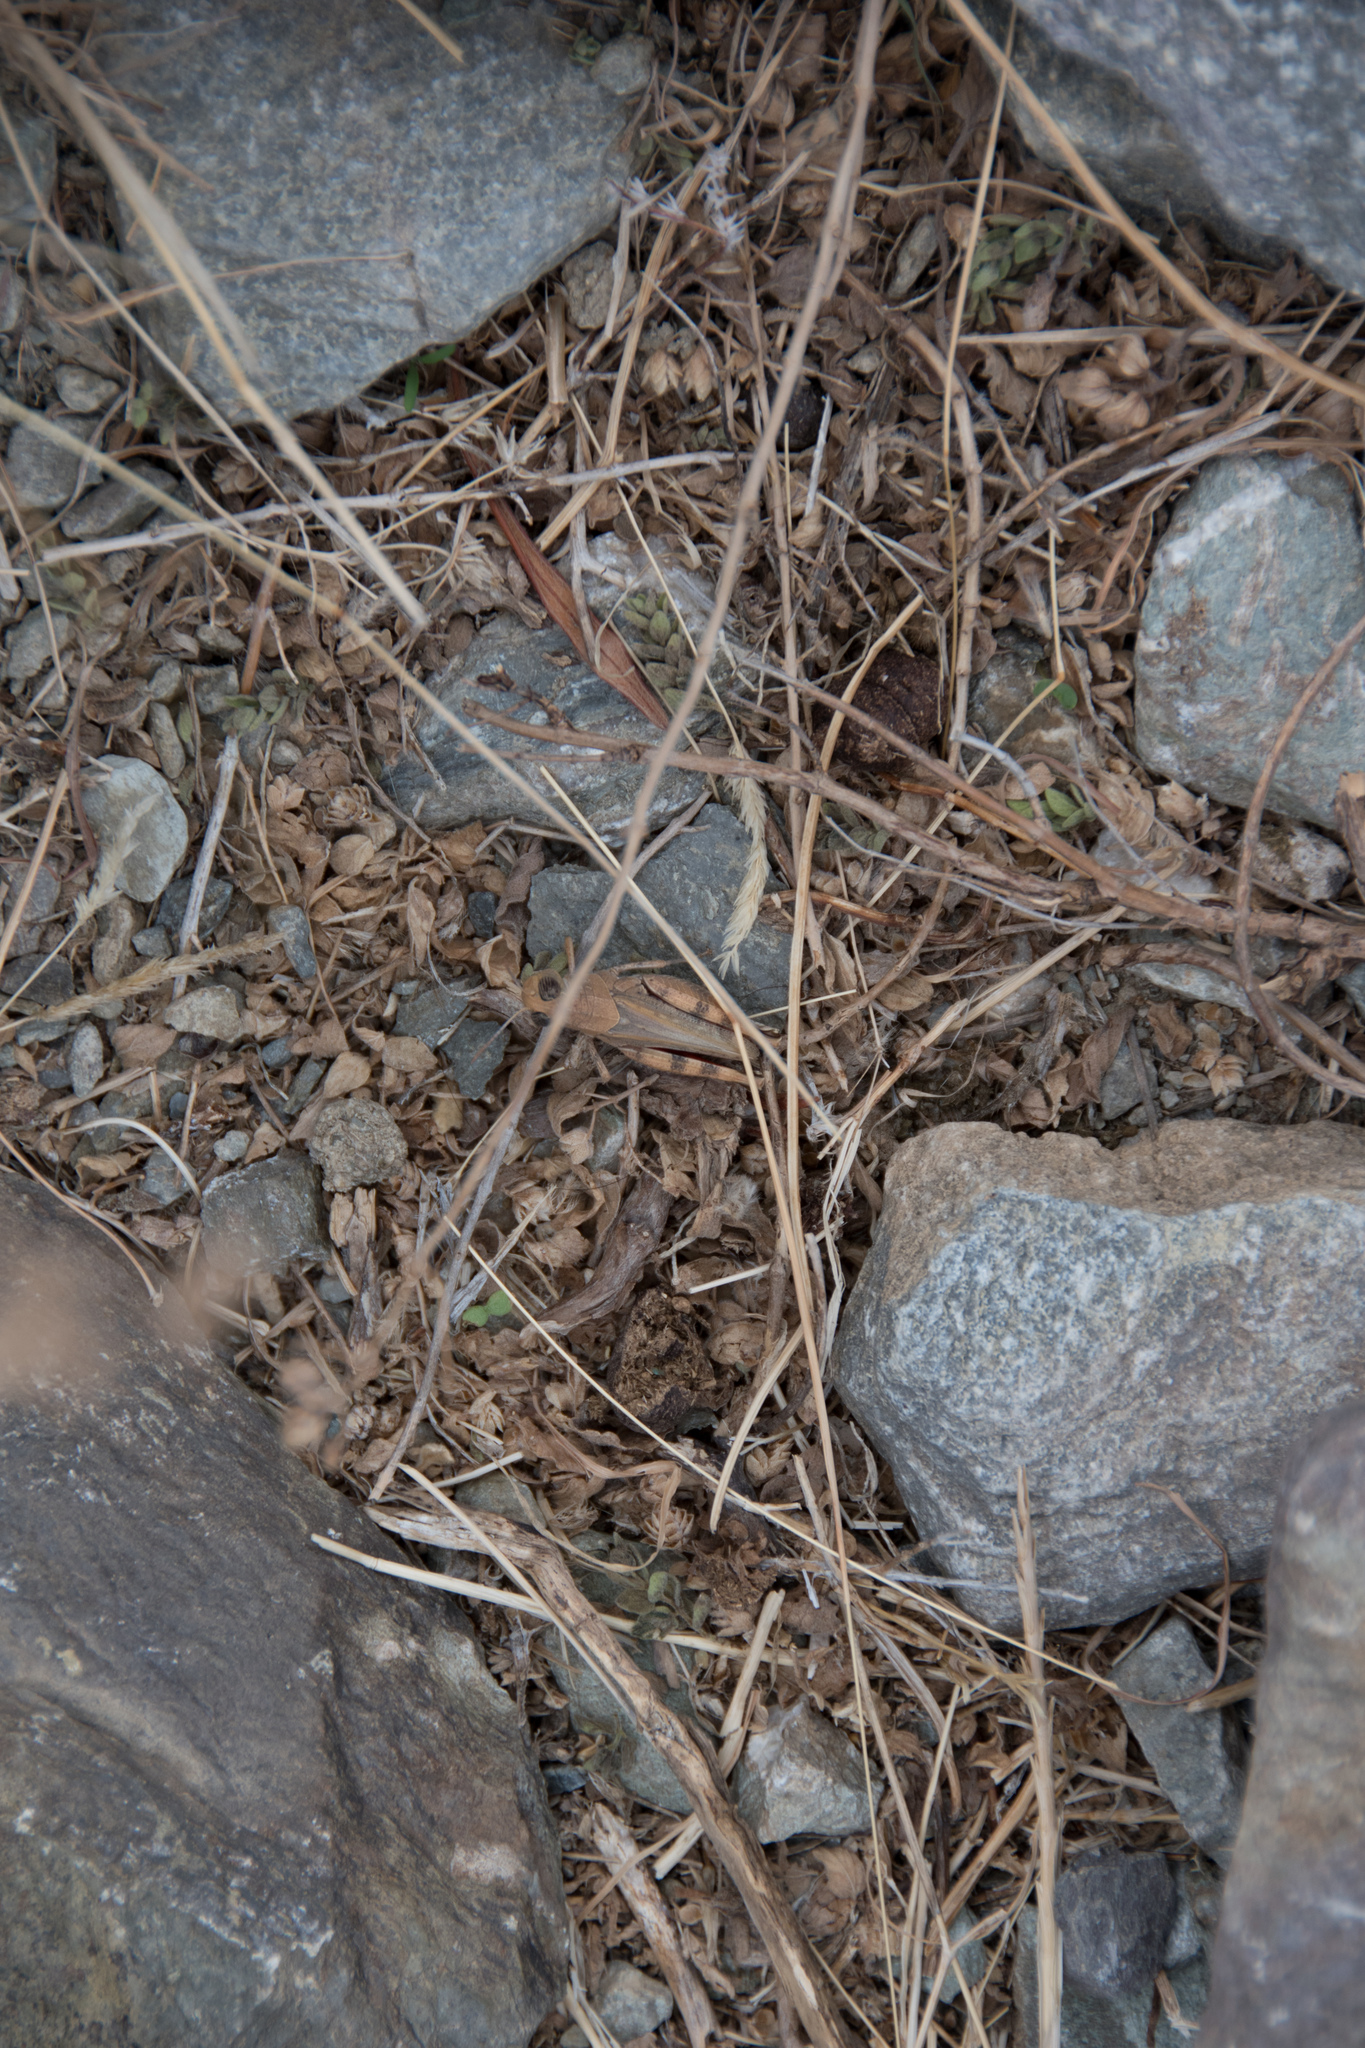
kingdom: Animalia
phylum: Arthropoda
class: Insecta
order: Orthoptera
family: Acrididae
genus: Calliptamus
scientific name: Calliptamus
